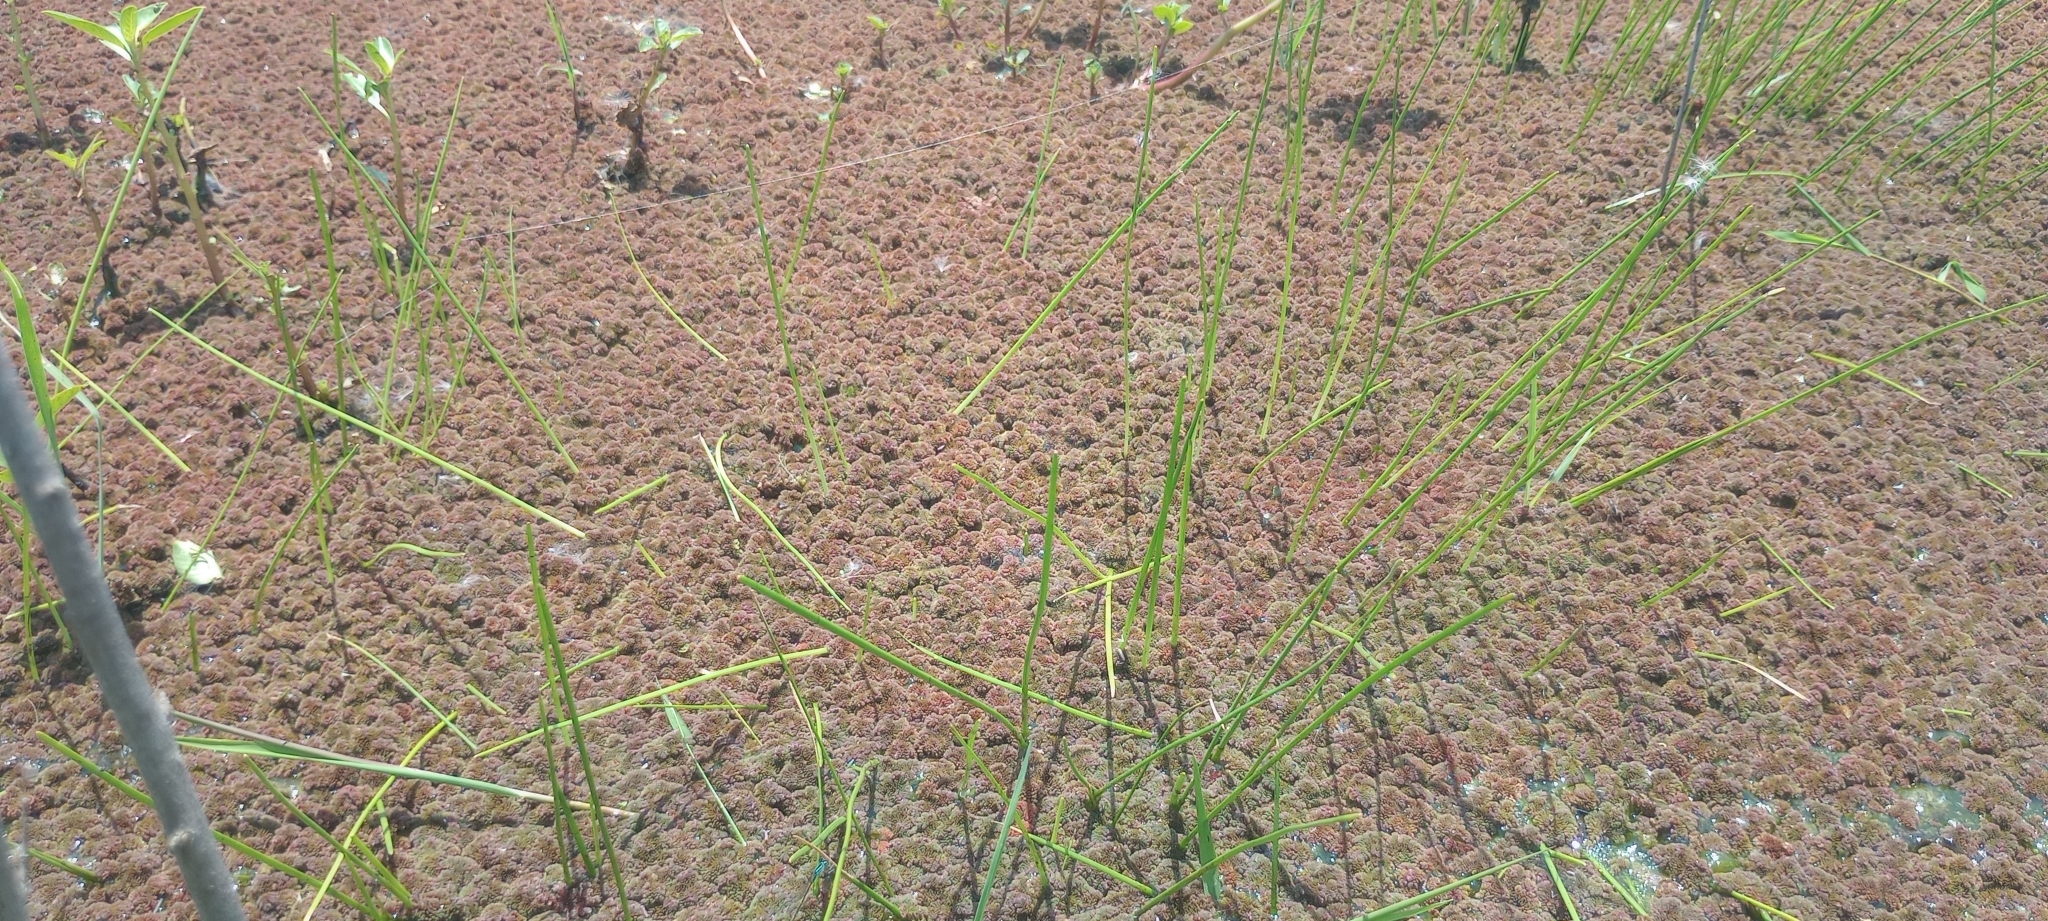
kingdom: Plantae
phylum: Tracheophyta
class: Polypodiopsida
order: Salviniales
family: Salviniaceae
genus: Azolla
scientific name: Azolla filiculoides
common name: Water fern
